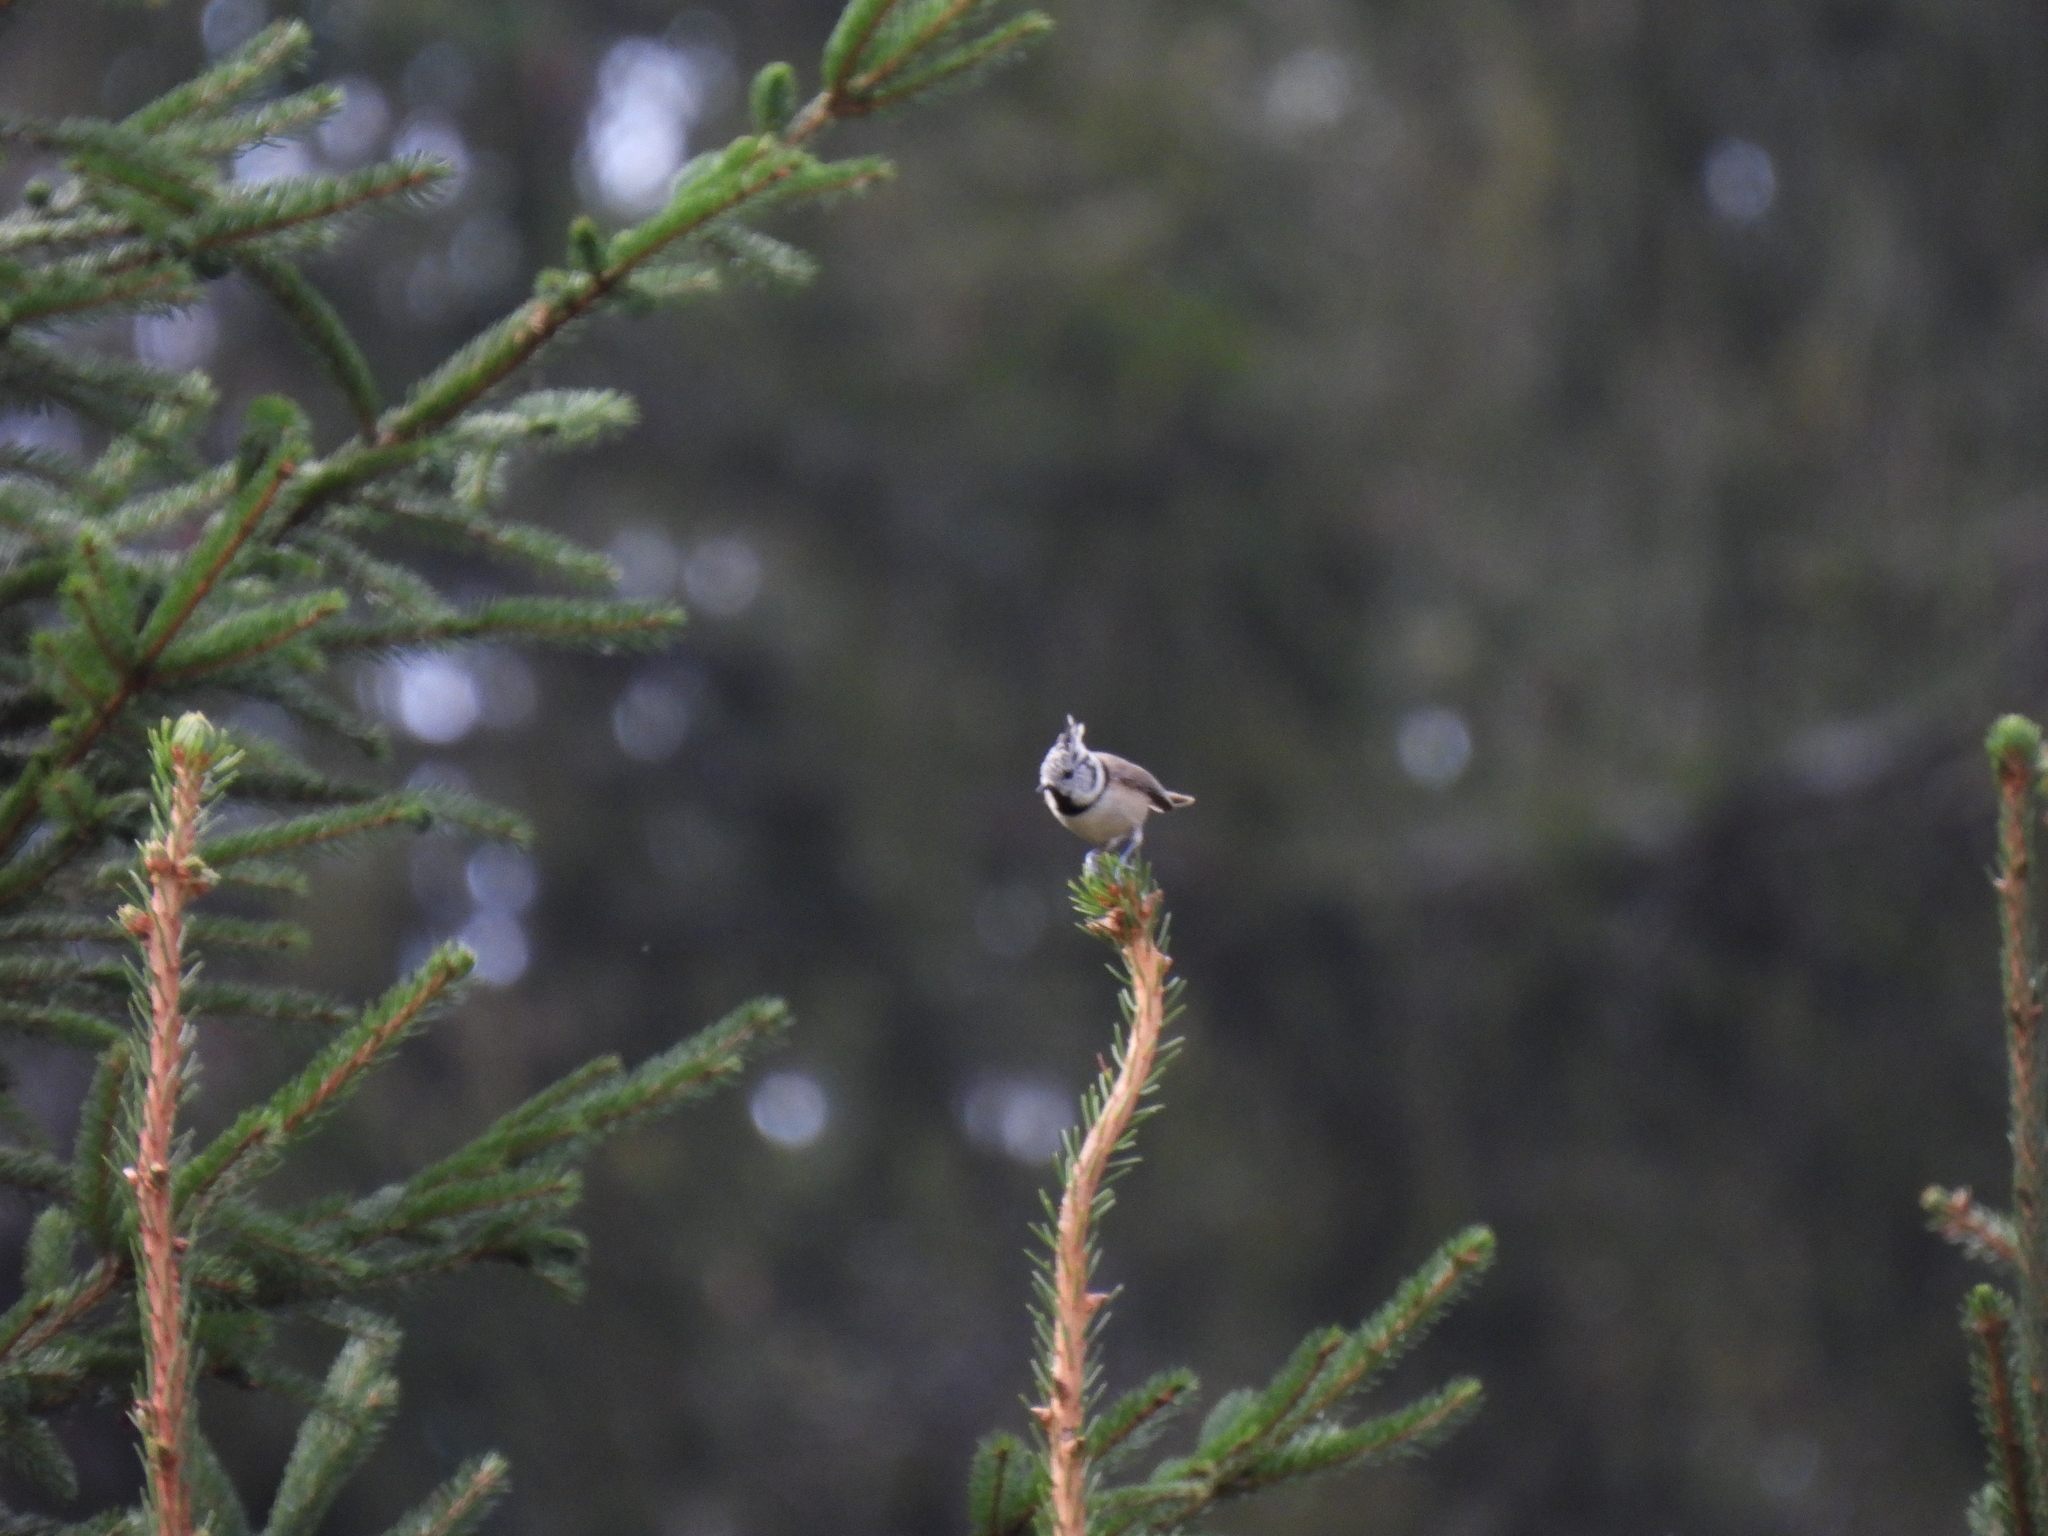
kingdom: Animalia
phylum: Chordata
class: Aves
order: Passeriformes
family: Paridae
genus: Lophophanes
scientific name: Lophophanes cristatus
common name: European crested tit
